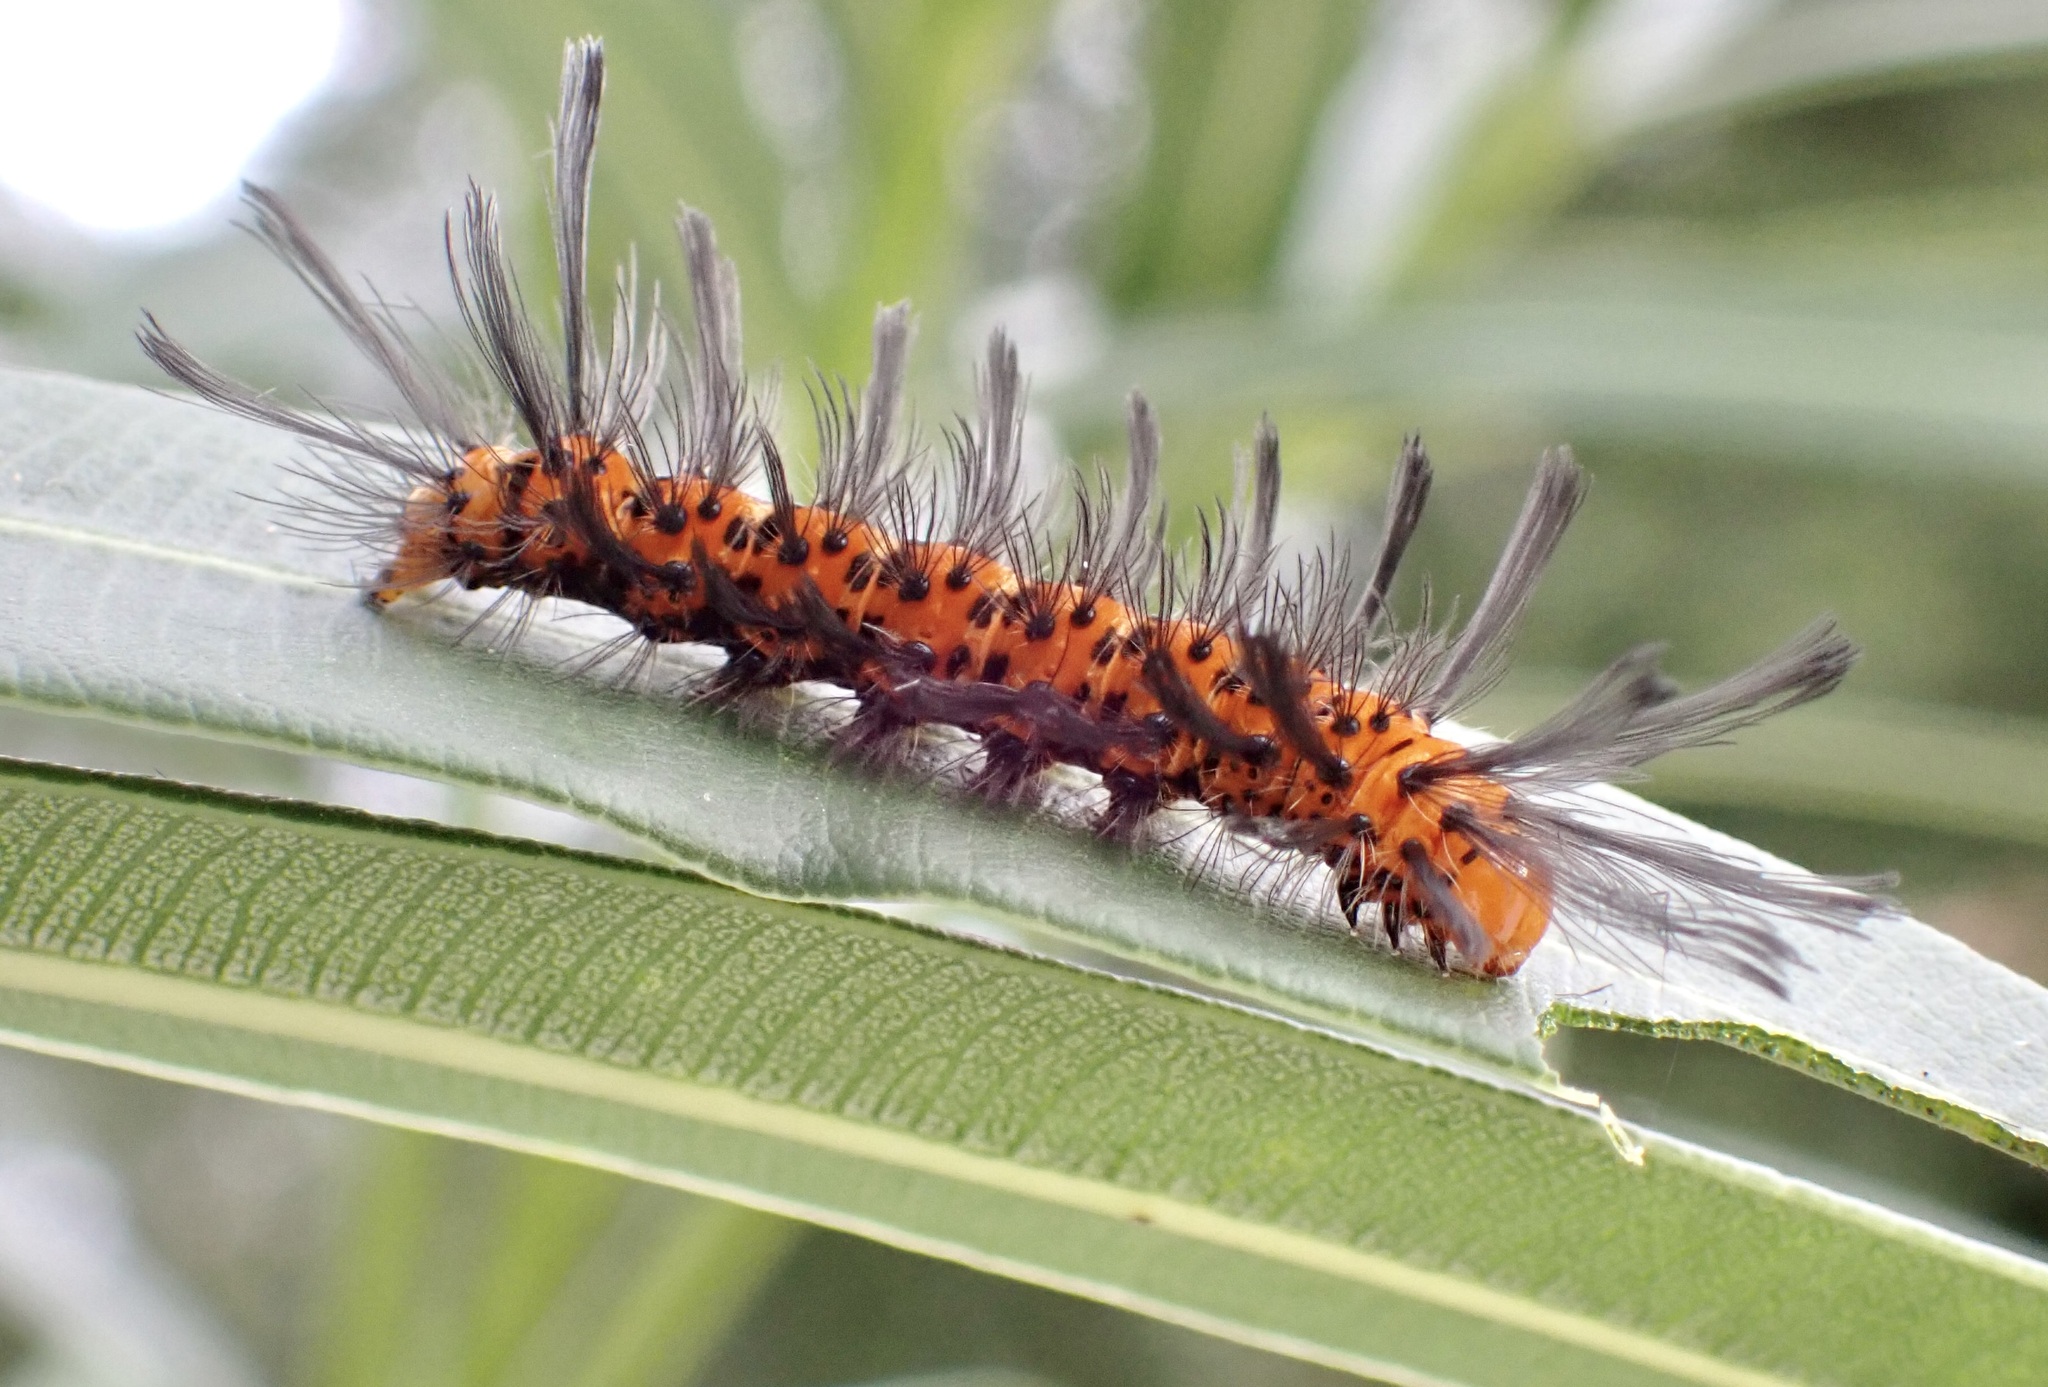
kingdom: Animalia
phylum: Arthropoda
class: Insecta
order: Lepidoptera
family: Erebidae
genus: Syntomeida
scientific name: Syntomeida epilais
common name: Polka-dot wasp moth
